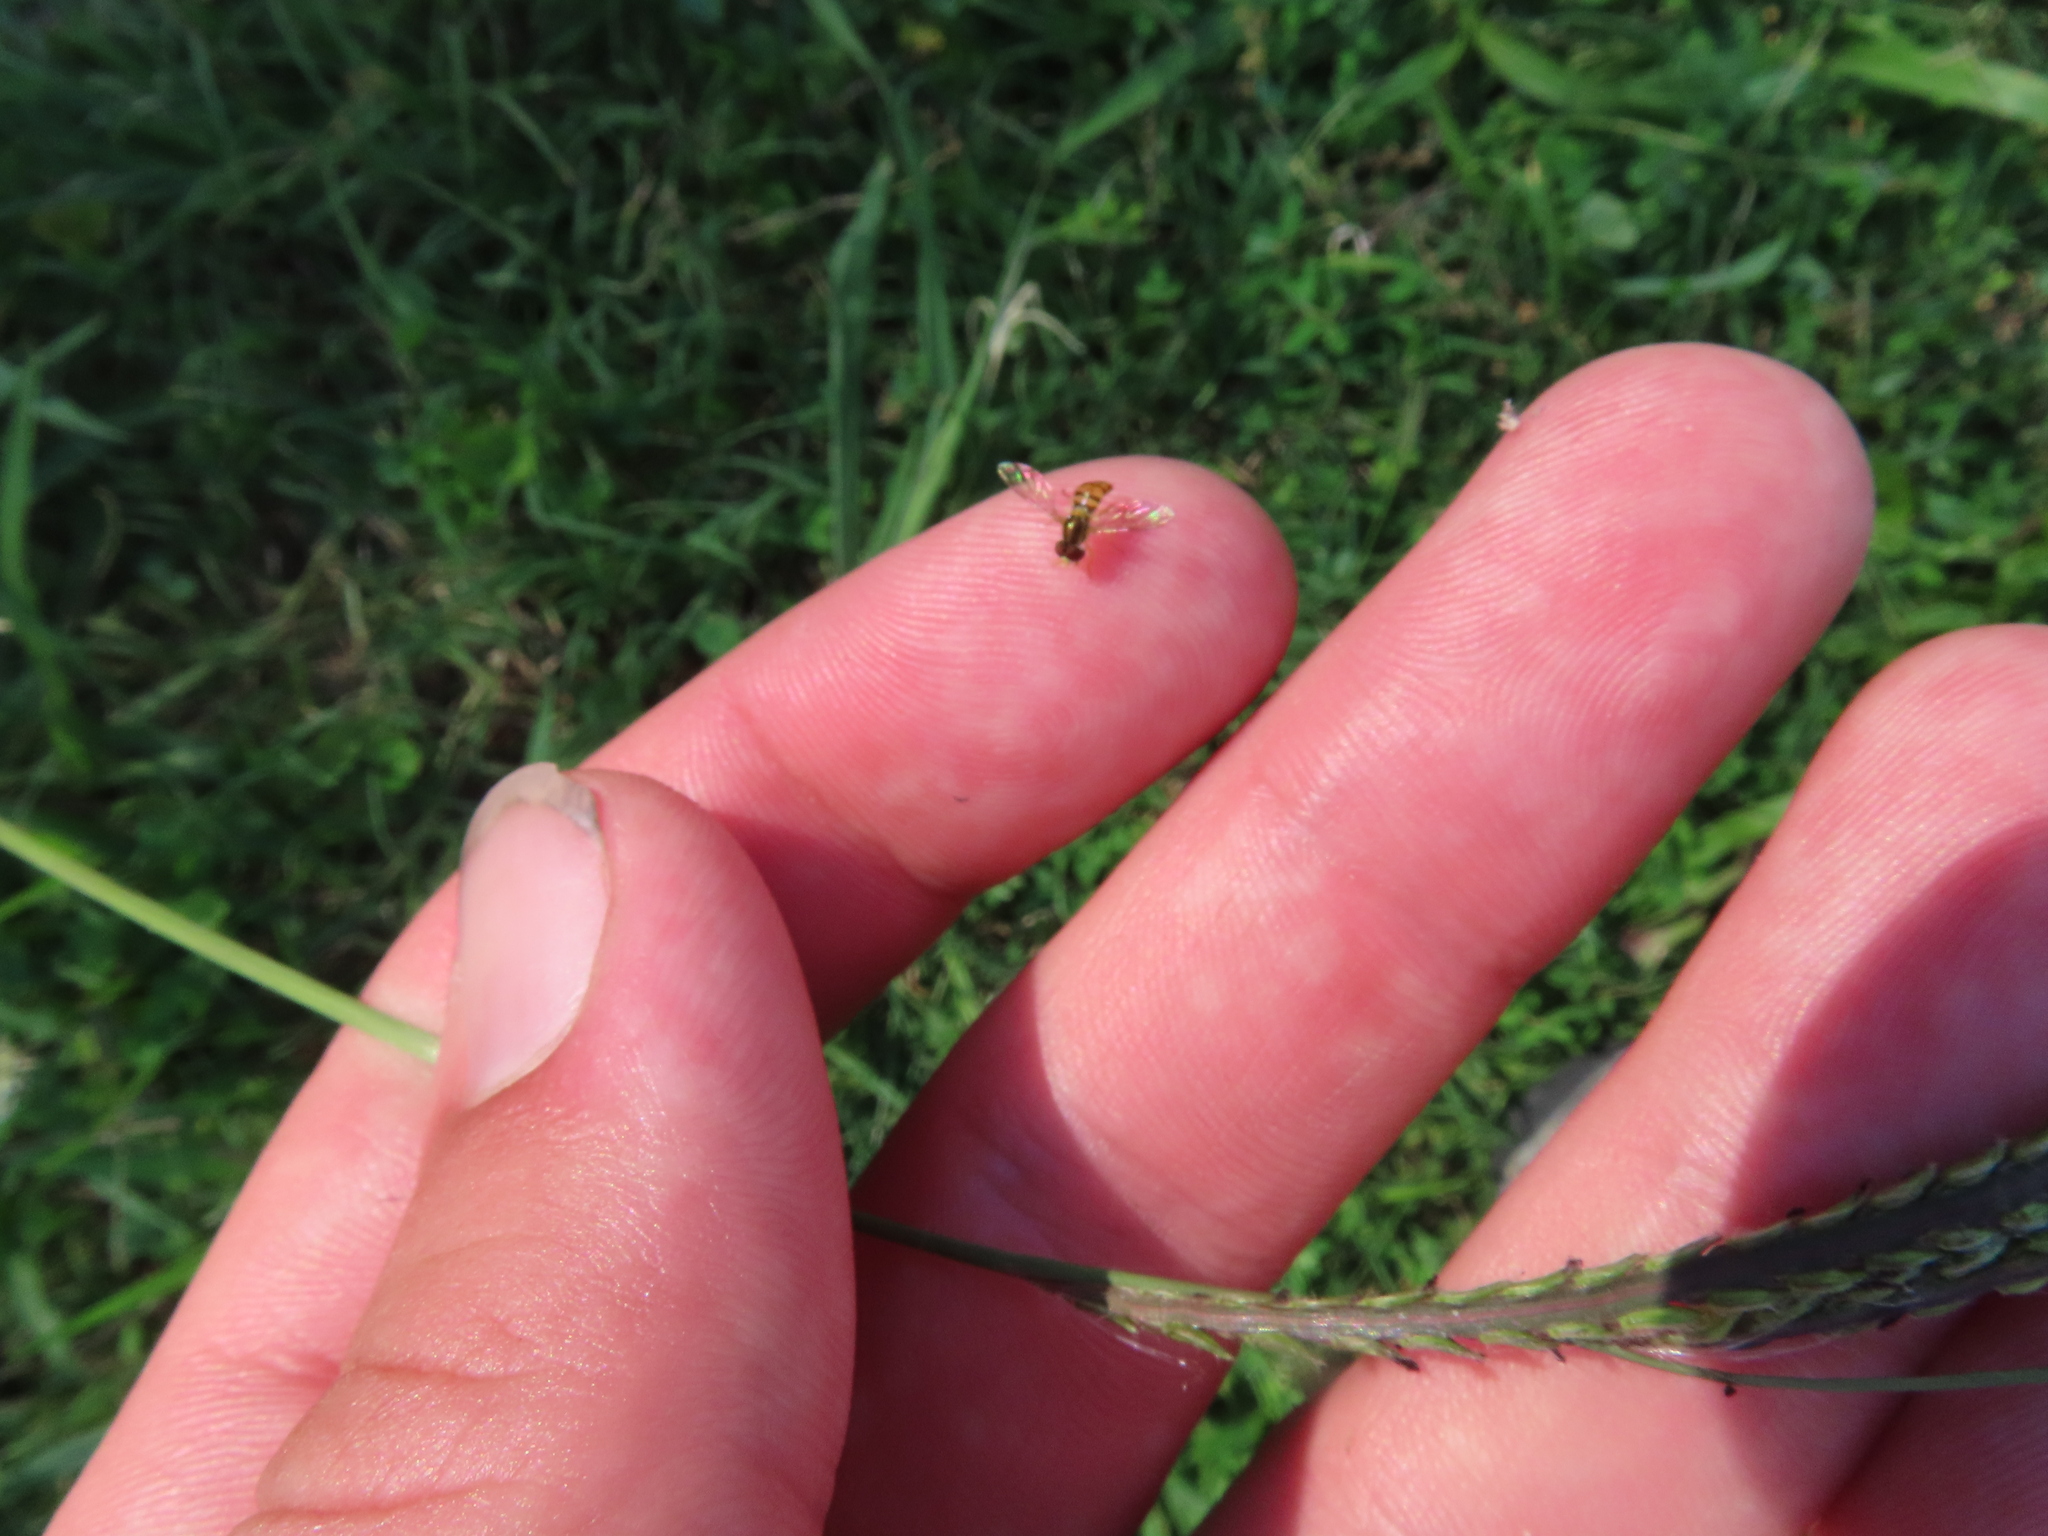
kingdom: Plantae
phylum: Tracheophyta
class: Liliopsida
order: Poales
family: Poaceae
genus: Paspalum
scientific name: Paspalum dilatatum
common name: Dallisgrass
